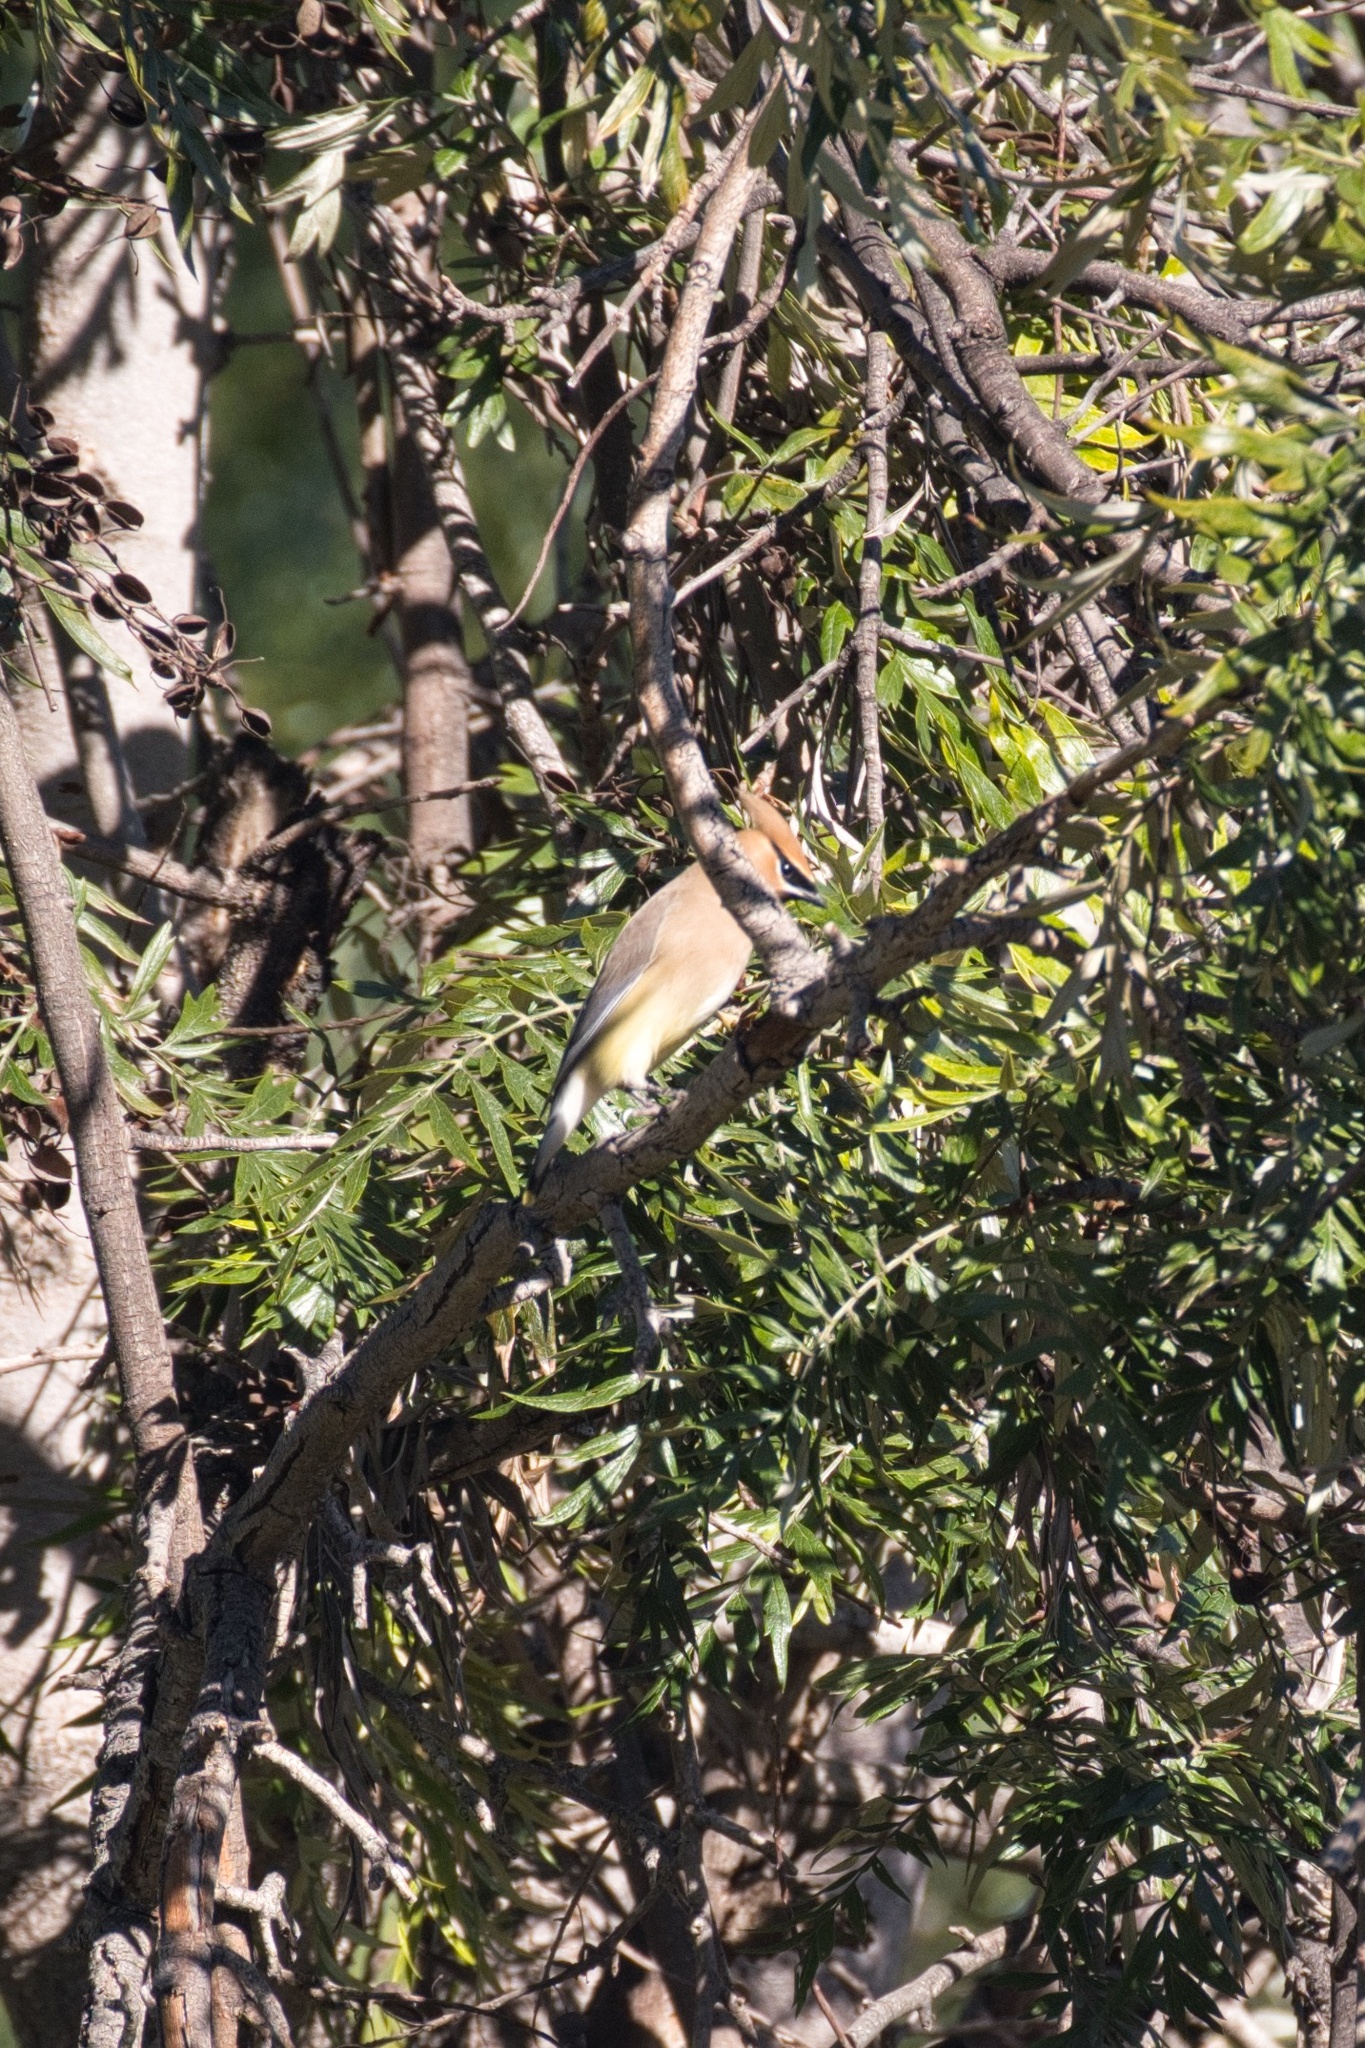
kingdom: Animalia
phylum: Chordata
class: Aves
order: Passeriformes
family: Bombycillidae
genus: Bombycilla
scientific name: Bombycilla cedrorum
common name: Cedar waxwing
